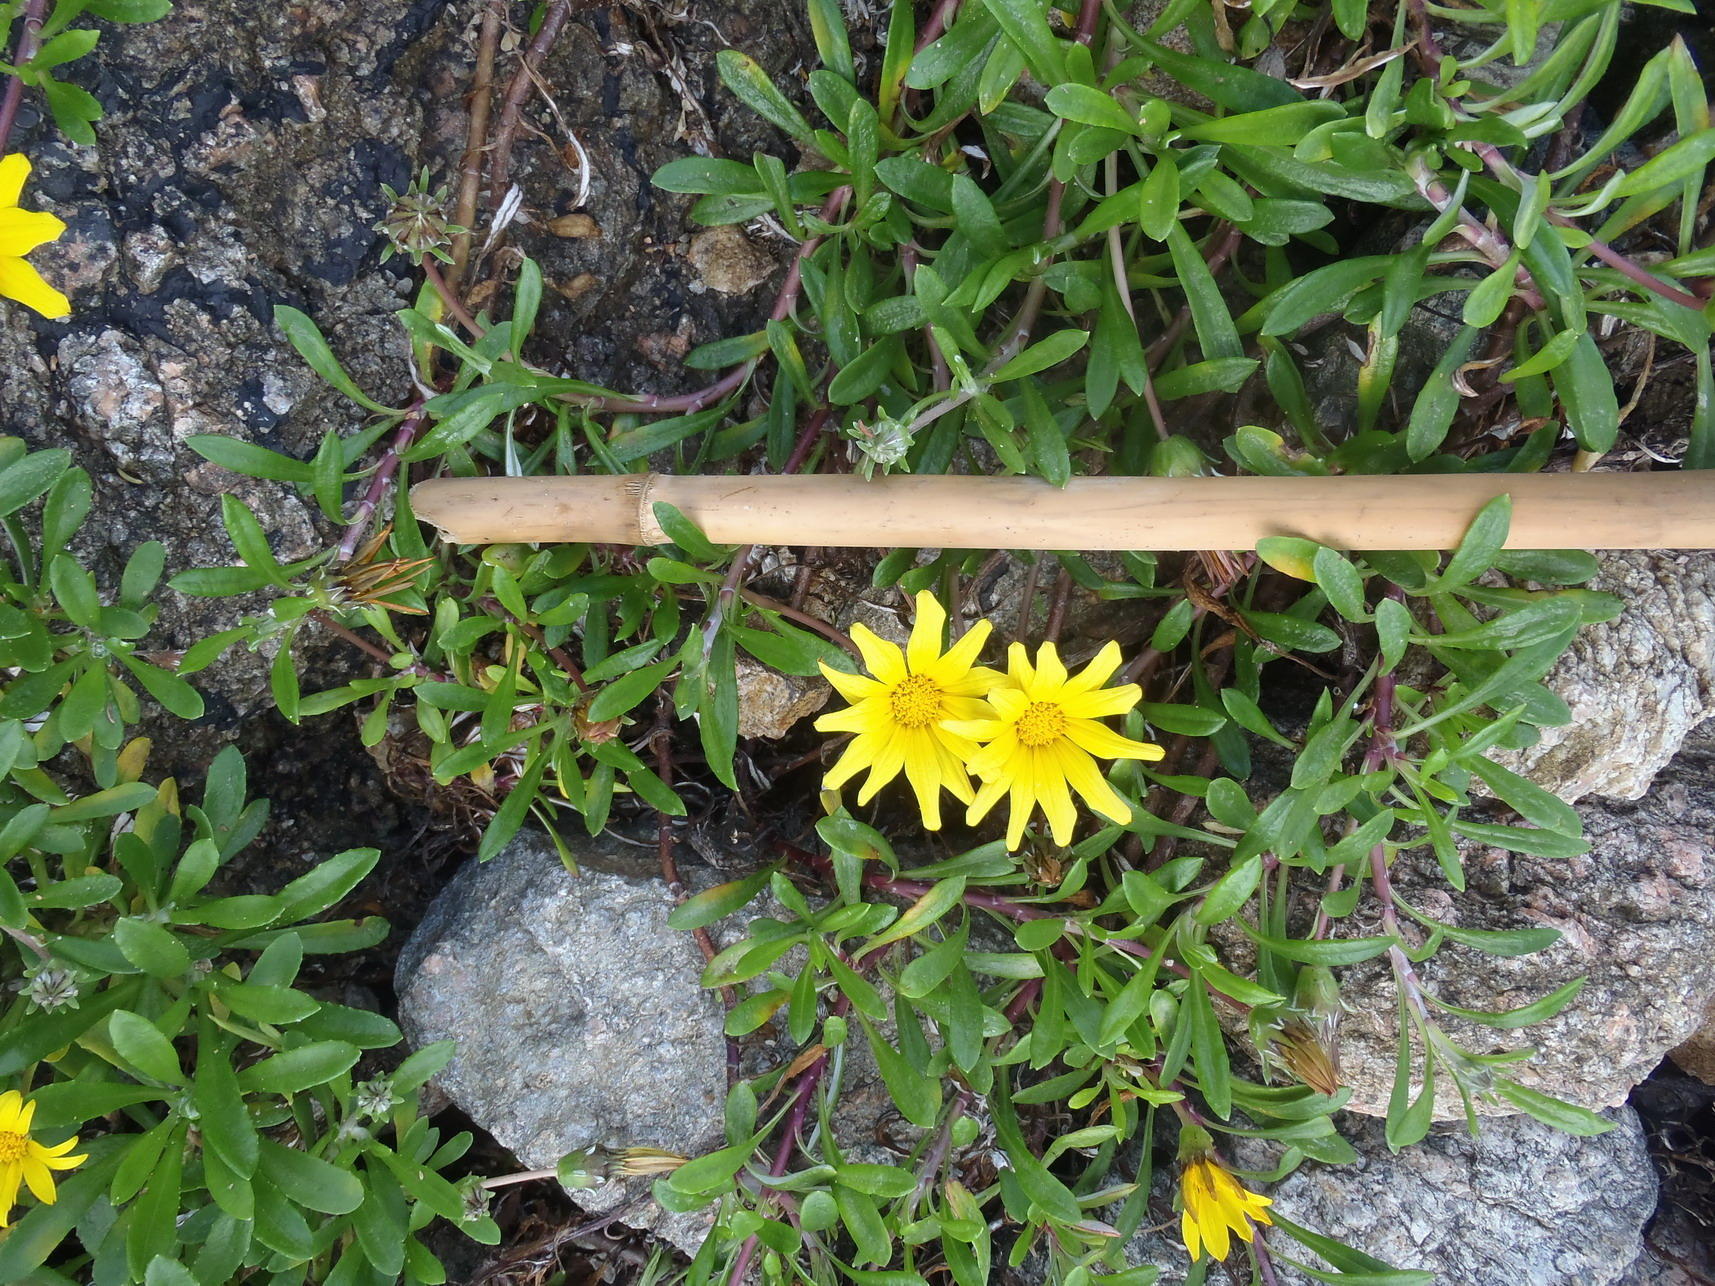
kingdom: Plantae
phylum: Tracheophyta
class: Magnoliopsida
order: Asterales
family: Asteraceae
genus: Gazania
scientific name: Gazania rigens
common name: Treasureflower
